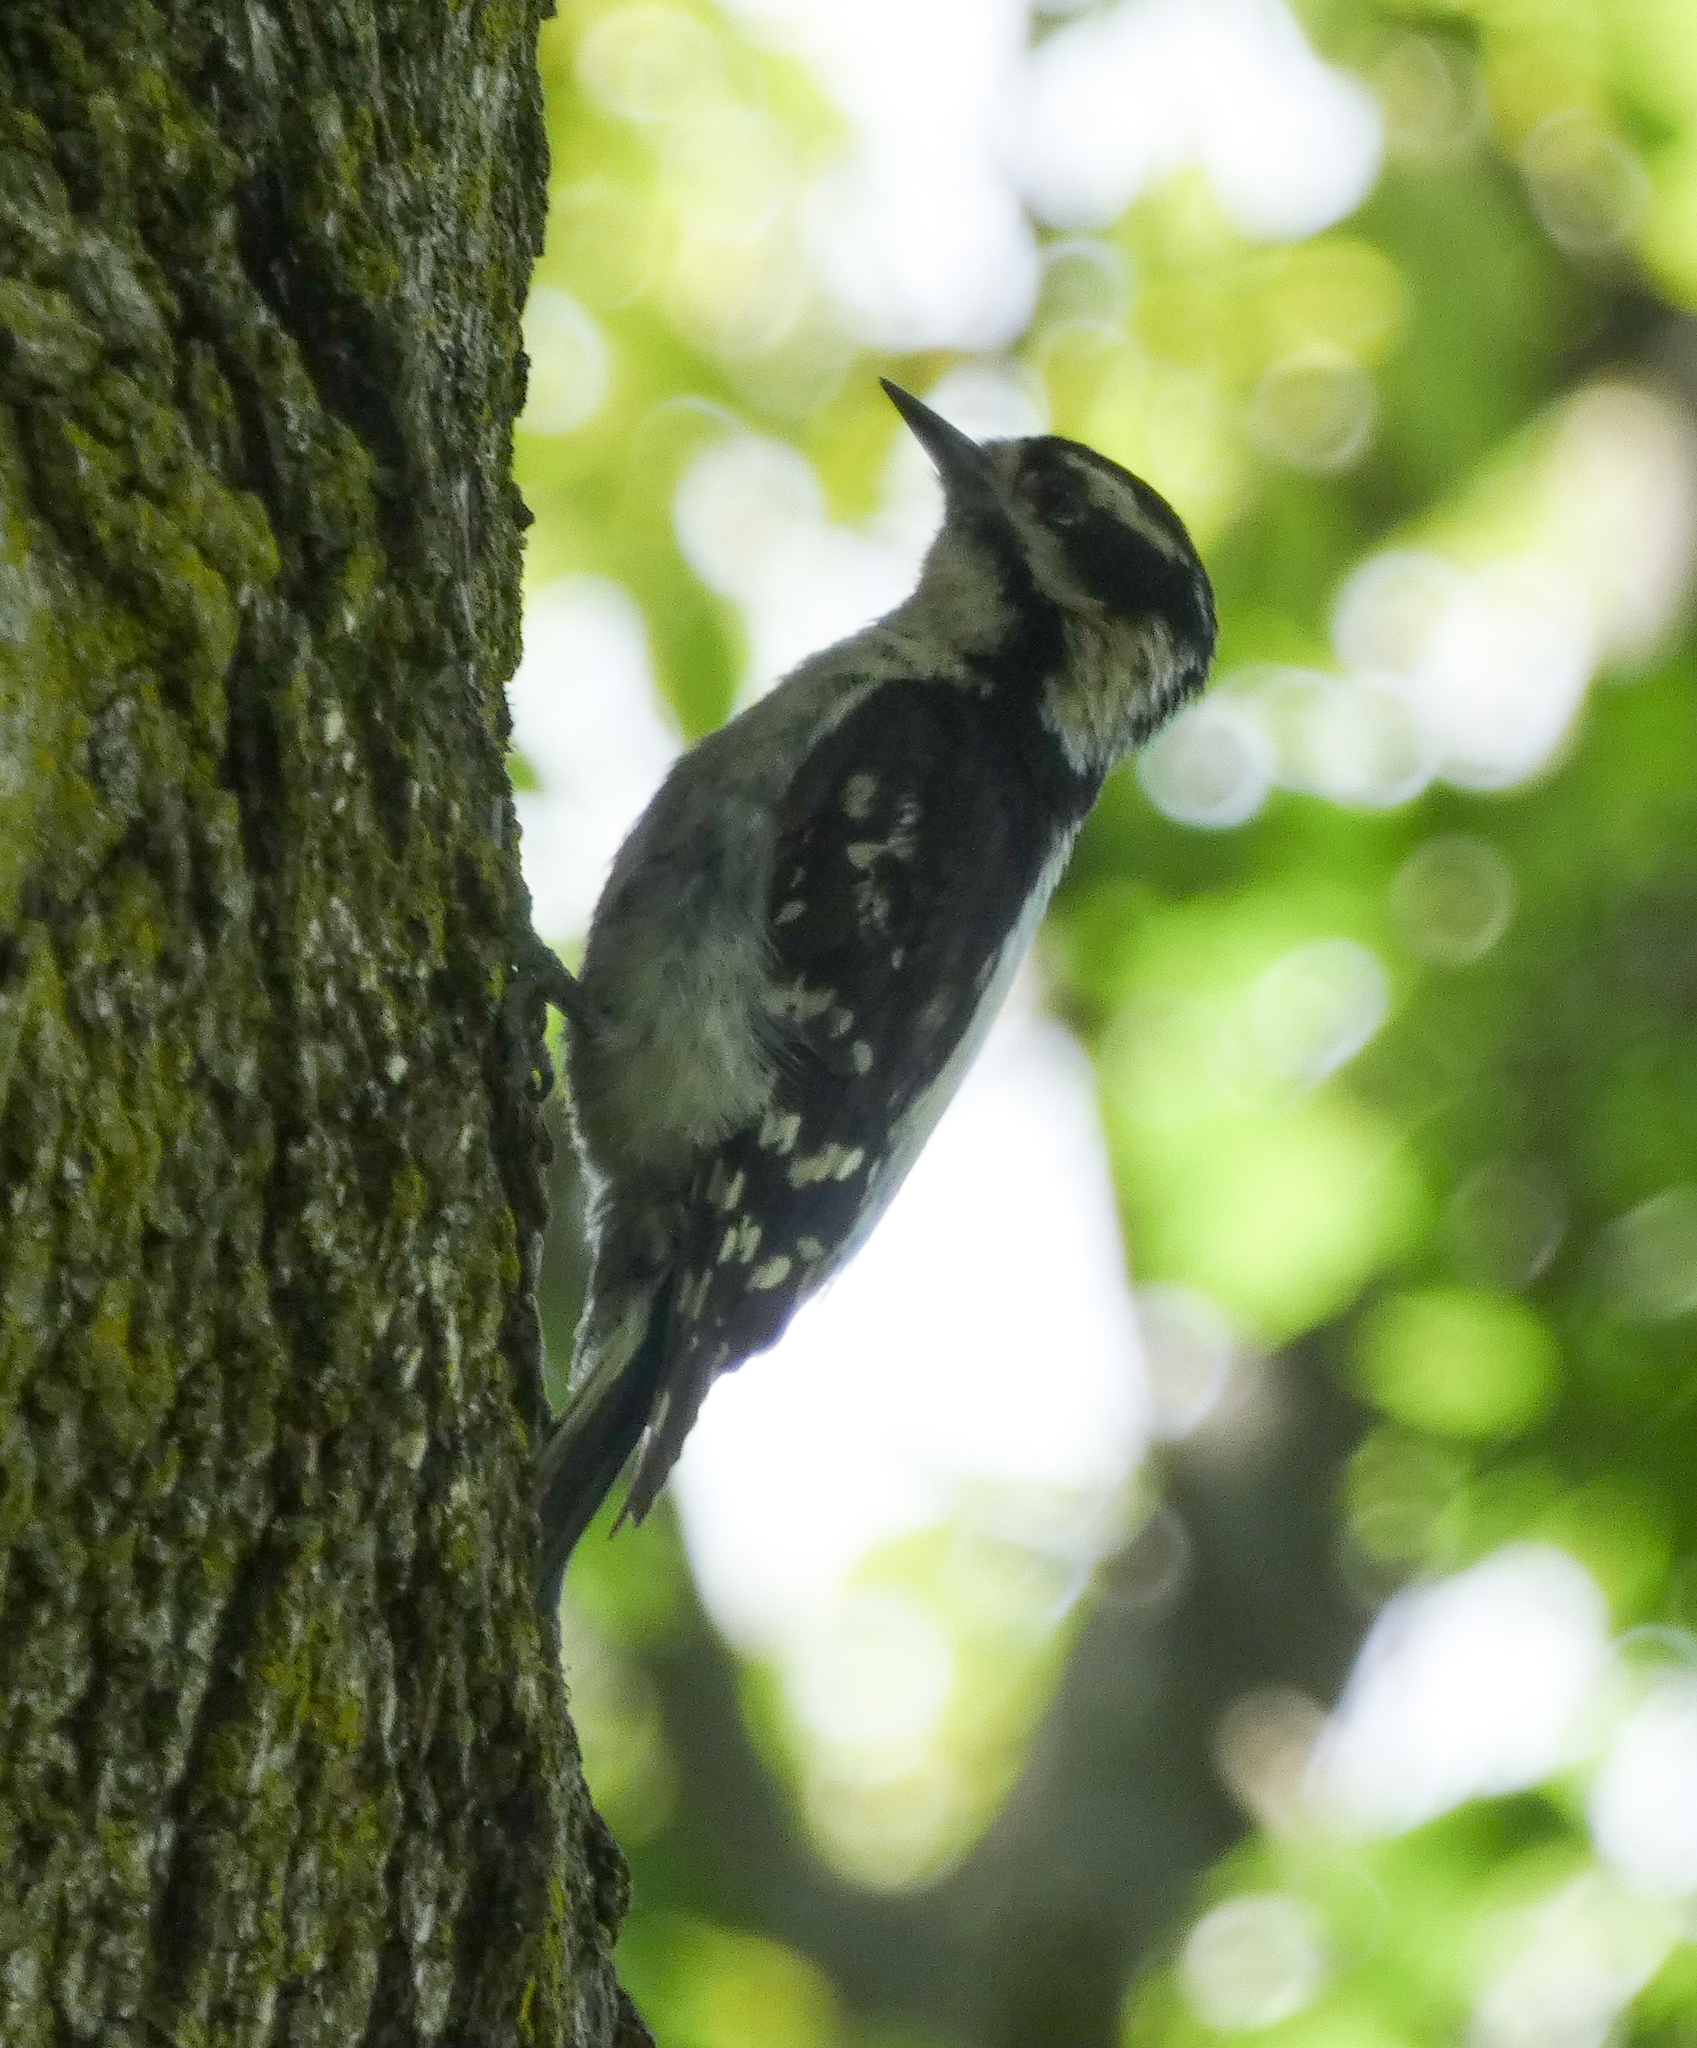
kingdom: Animalia
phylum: Chordata
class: Aves
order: Piciformes
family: Picidae
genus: Dryobates
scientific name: Dryobates pubescens
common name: Downy woodpecker
